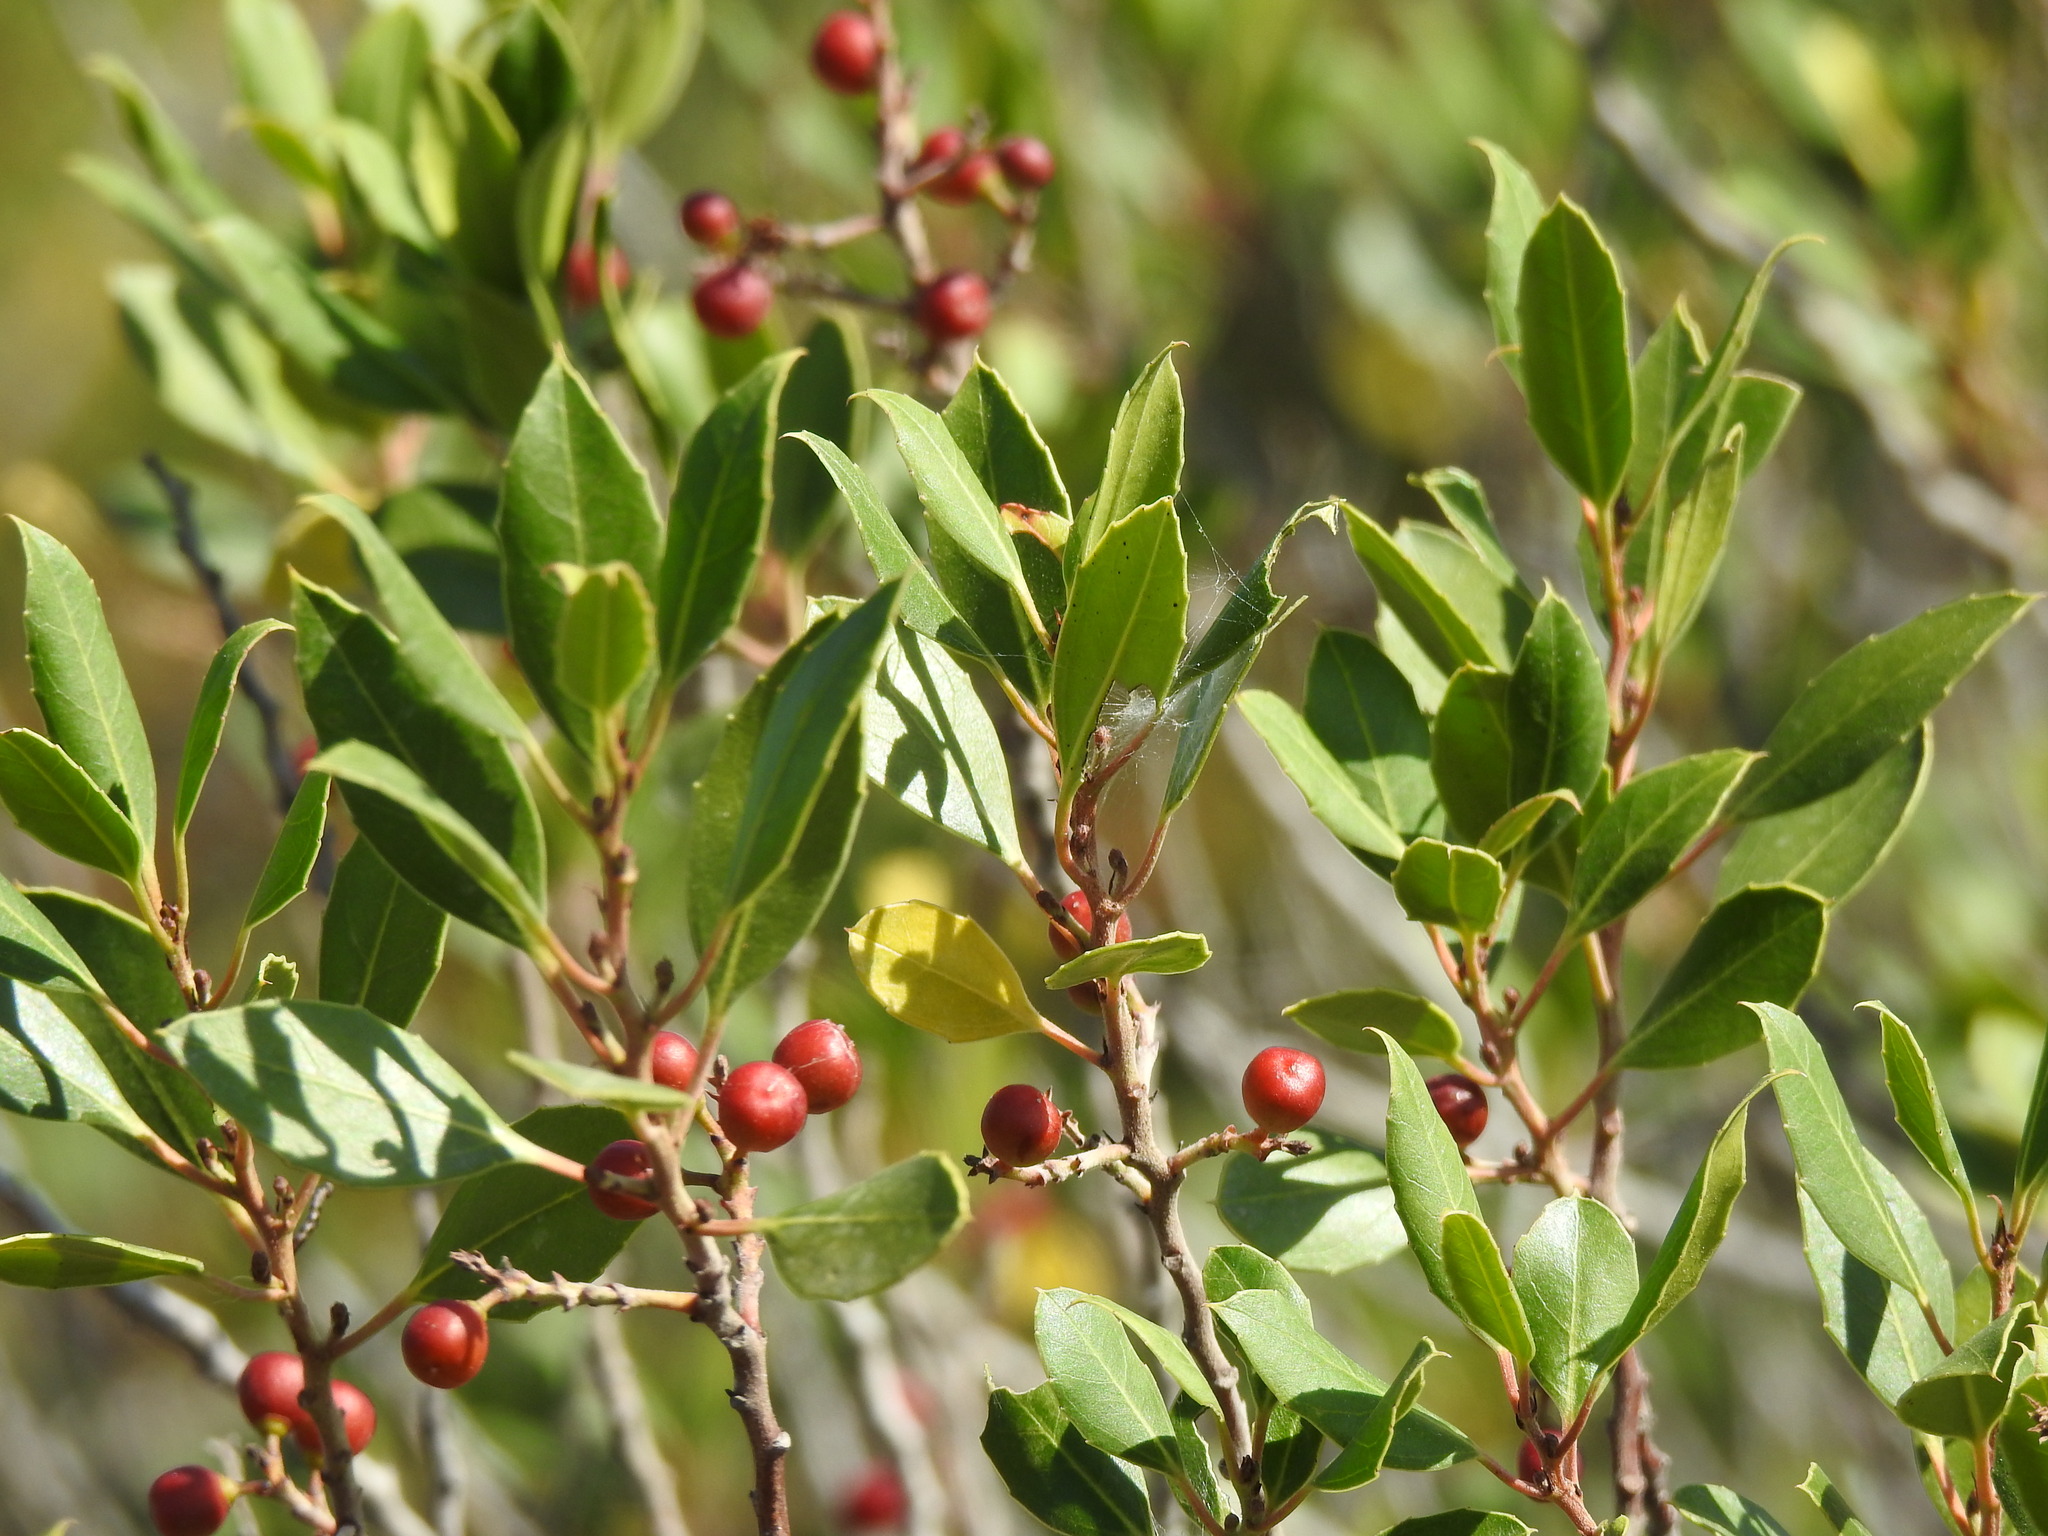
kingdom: Plantae
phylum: Tracheophyta
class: Magnoliopsida
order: Rosales
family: Rhamnaceae
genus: Rhamnus
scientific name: Rhamnus alaternus
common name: Mediterranean buckthorn
